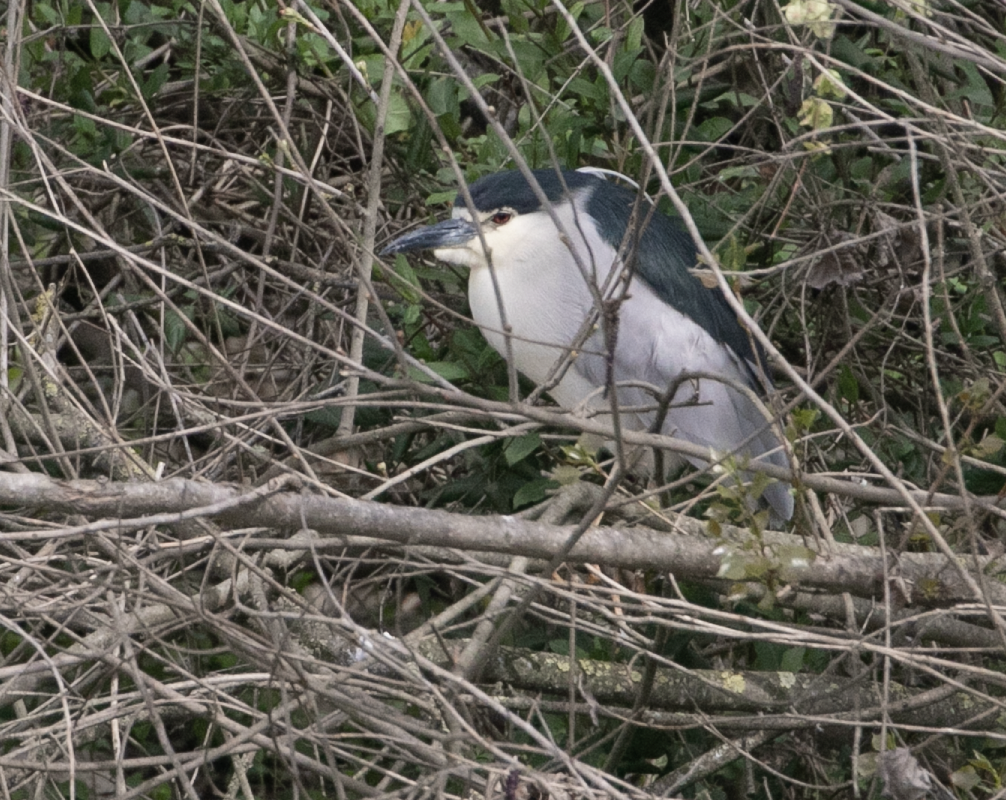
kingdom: Animalia
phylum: Chordata
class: Aves
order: Pelecaniformes
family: Ardeidae
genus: Nycticorax
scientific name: Nycticorax nycticorax
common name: Black-crowned night heron
